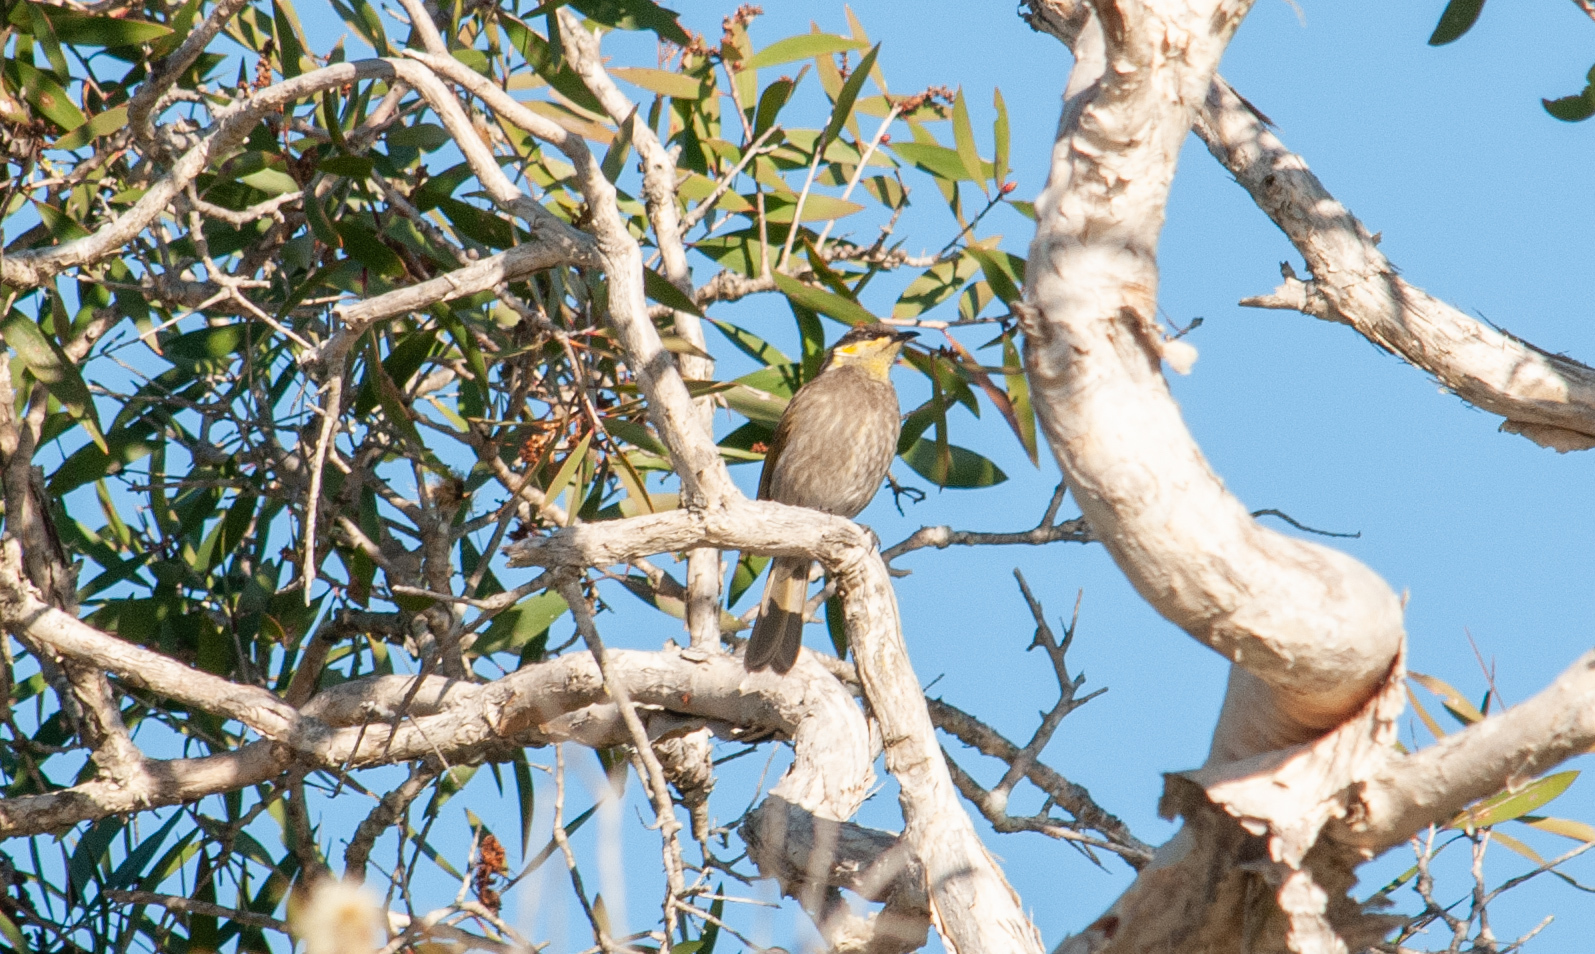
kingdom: Animalia
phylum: Chordata
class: Aves
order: Passeriformes
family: Meliphagidae
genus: Gavicalis
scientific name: Gavicalis fasciogularis
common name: Mangrove honeyeater
